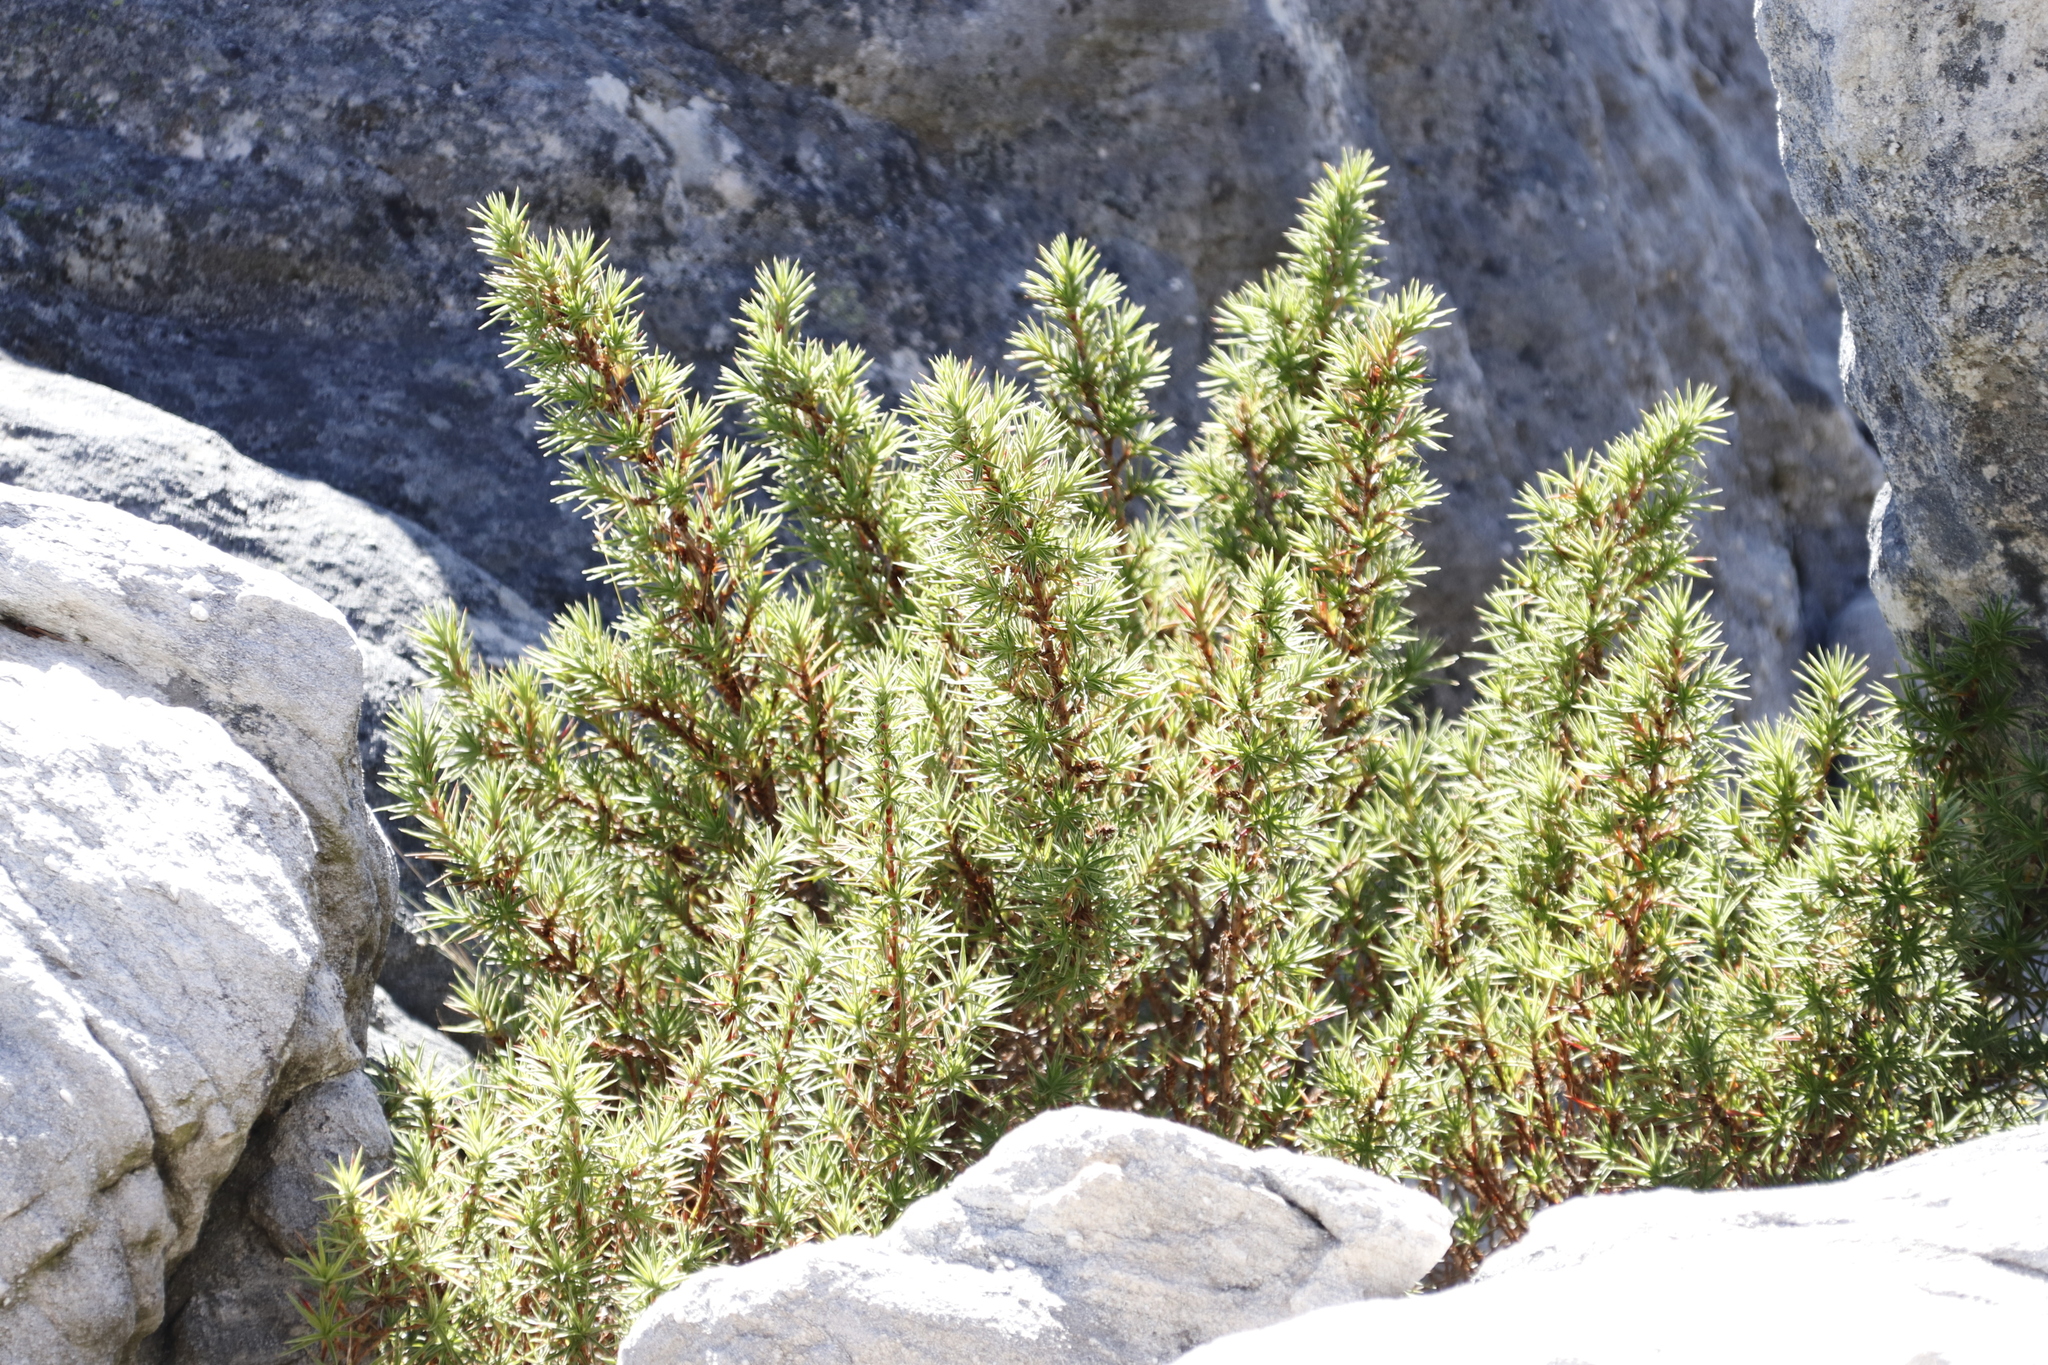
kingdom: Plantae
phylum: Tracheophyta
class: Magnoliopsida
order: Rosales
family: Rosaceae
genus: Cliffortia
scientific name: Cliffortia dregeana
